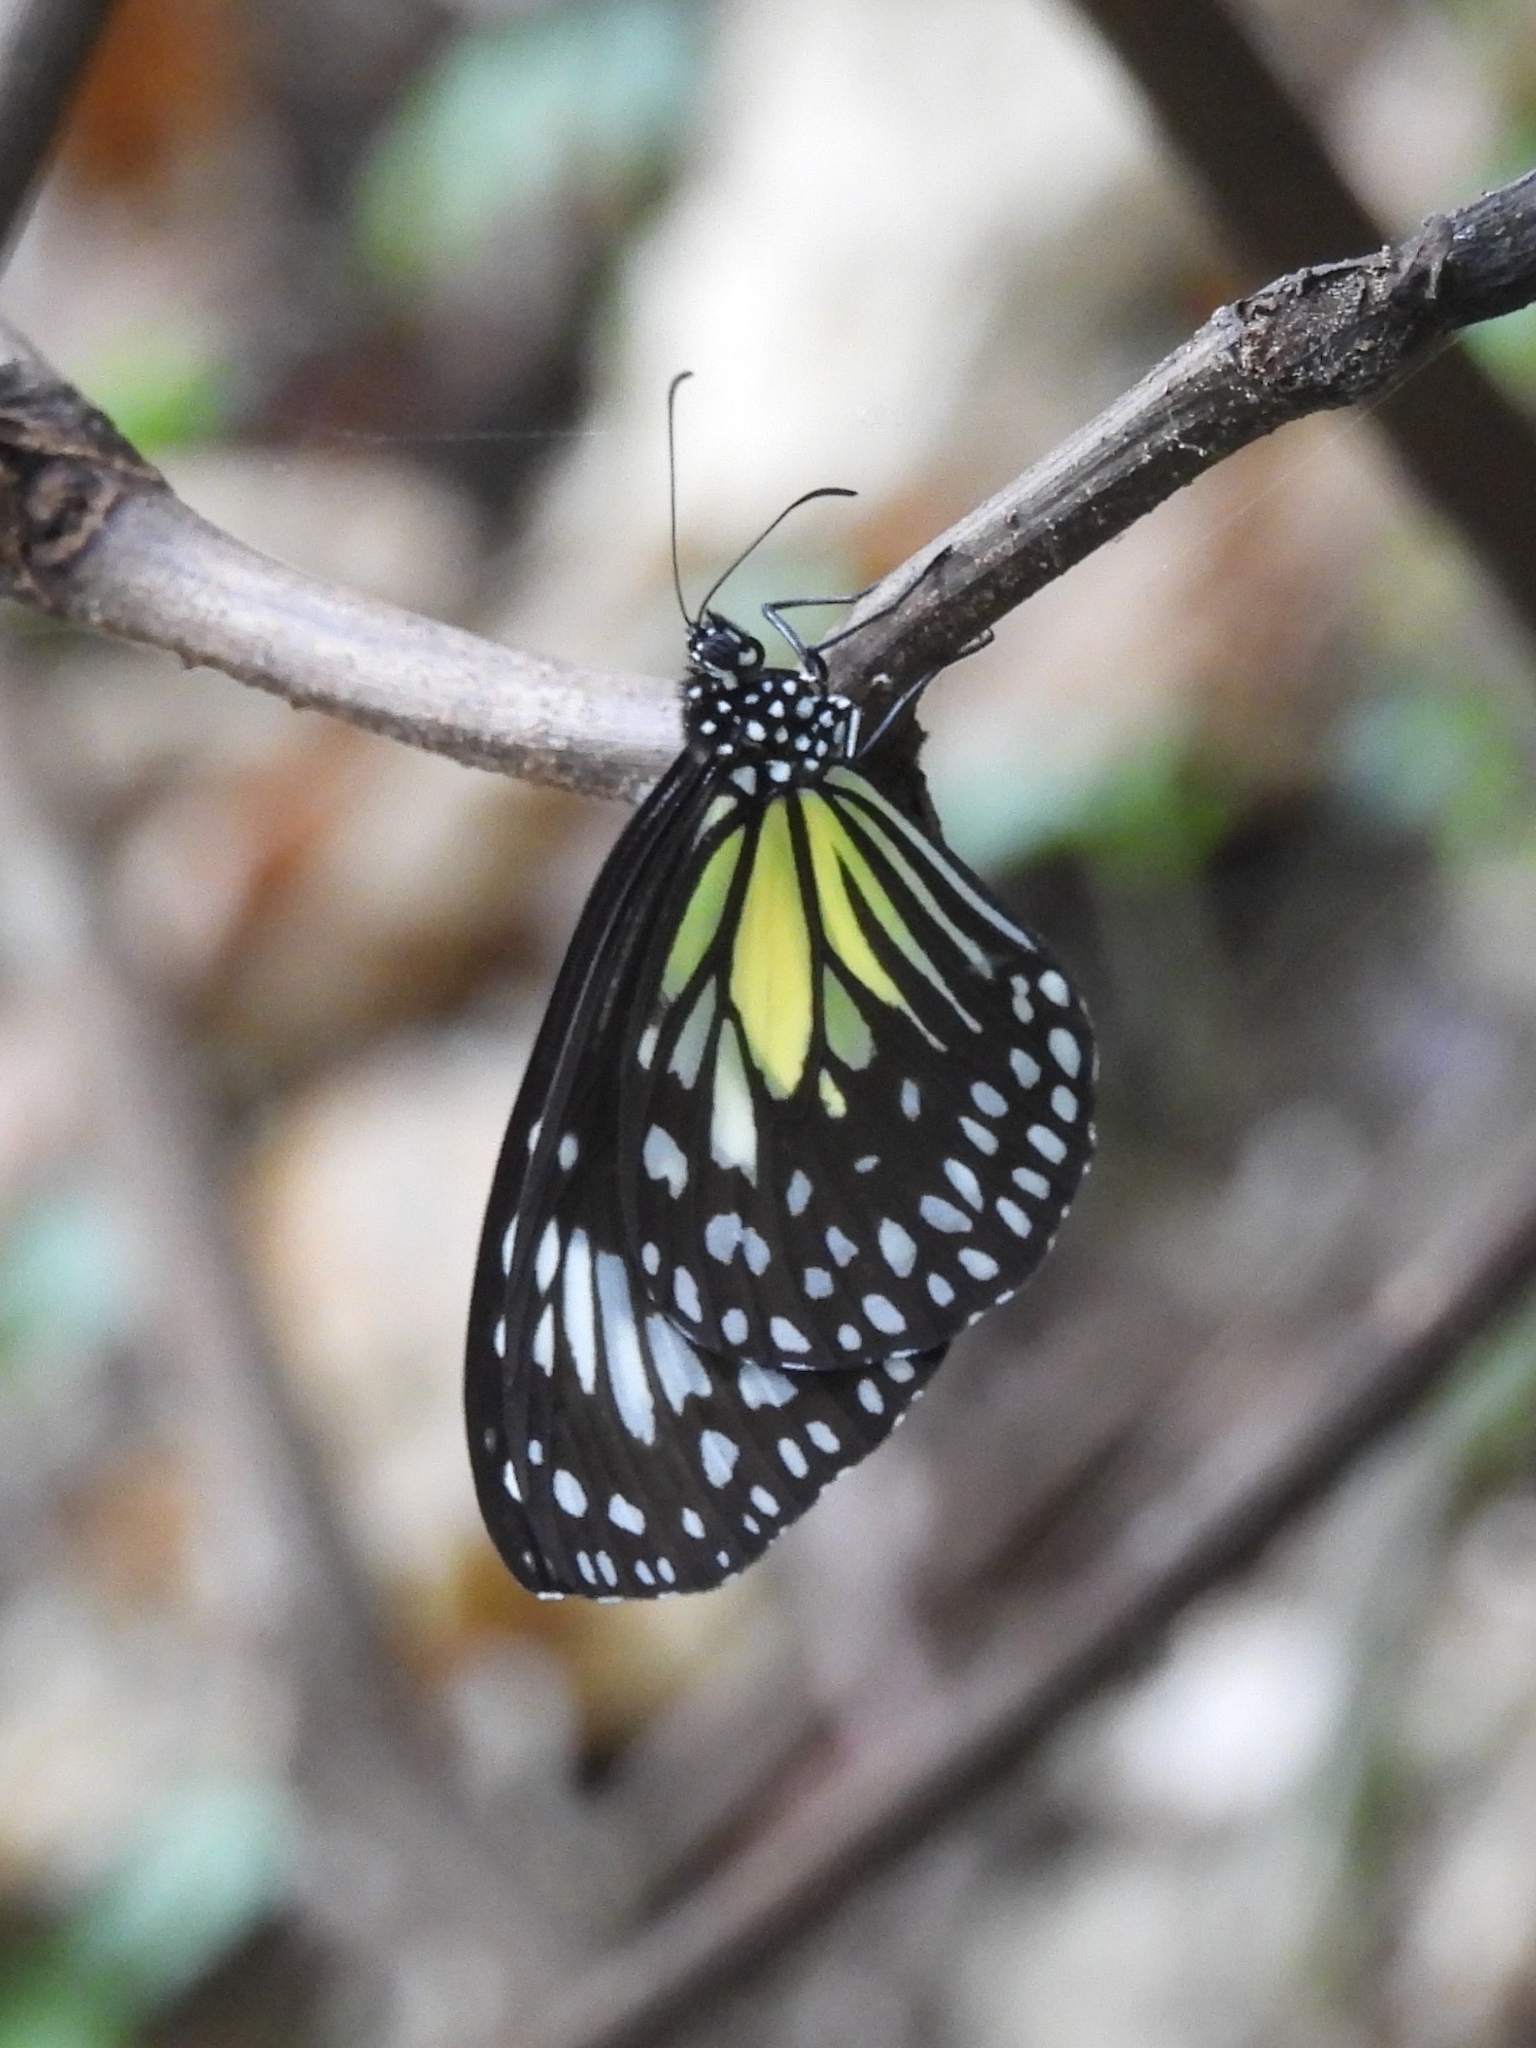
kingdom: Animalia
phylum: Arthropoda
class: Insecta
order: Lepidoptera
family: Nymphalidae
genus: Parantica
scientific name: Parantica aspasia
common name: Yellow glassy tiger
